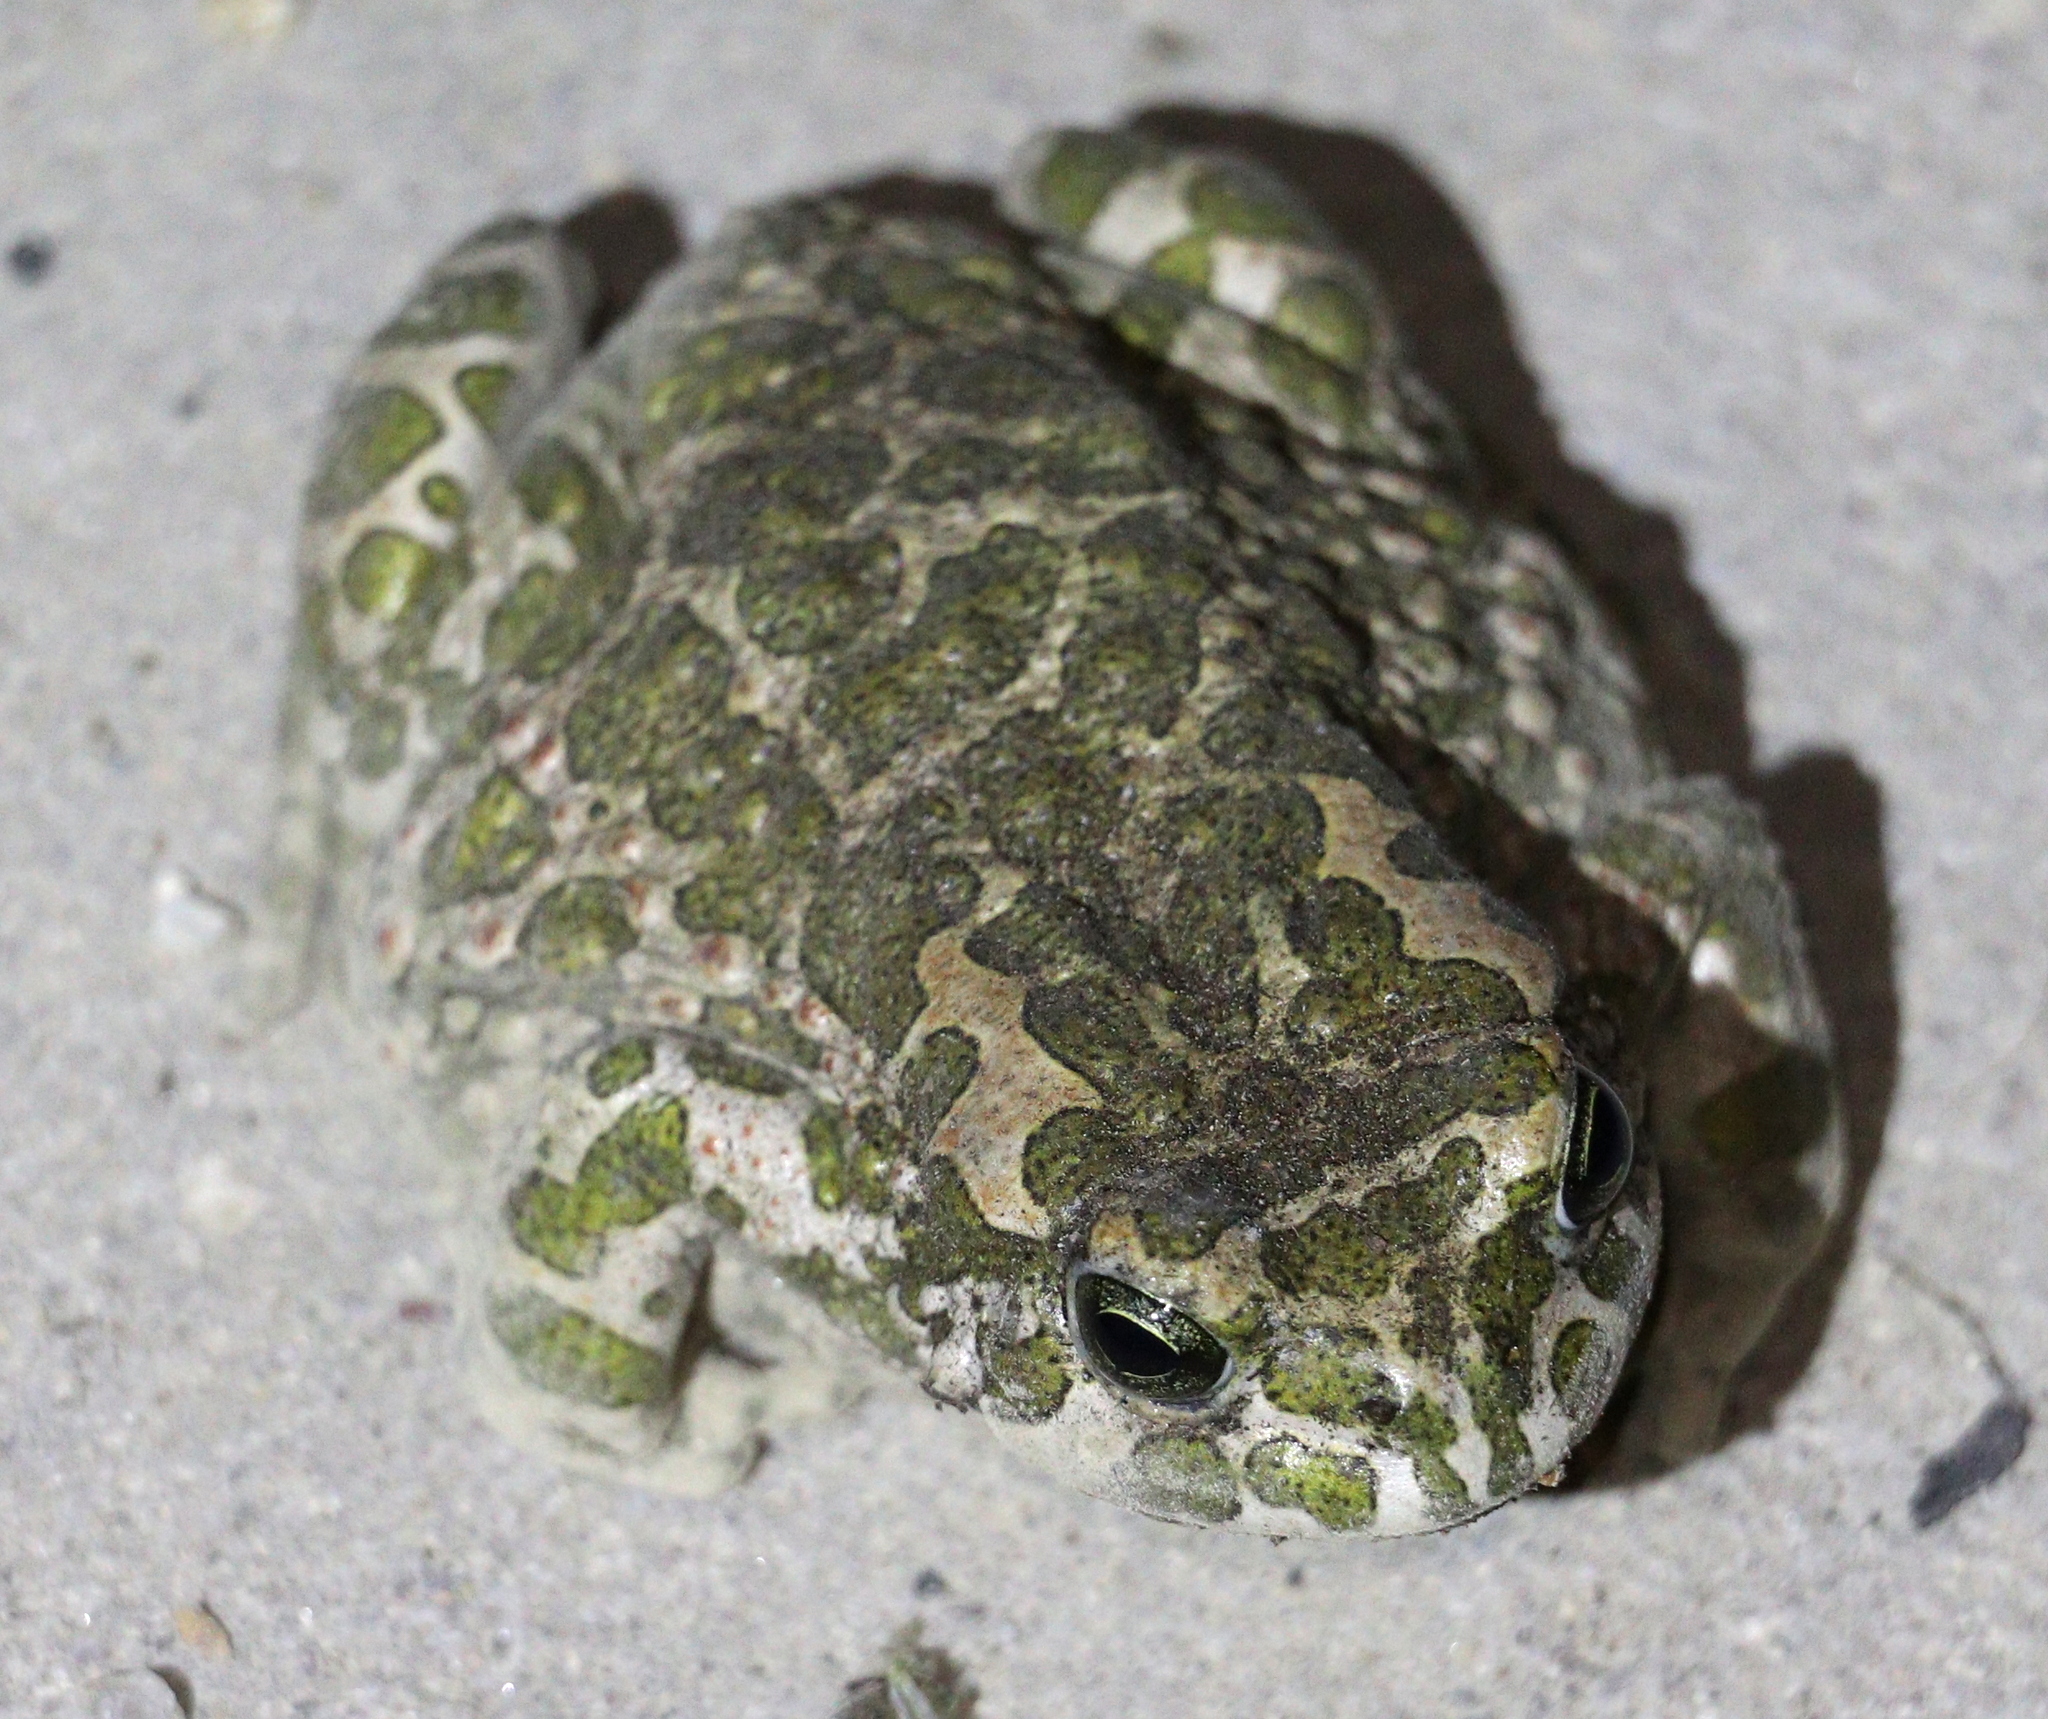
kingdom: Animalia
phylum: Chordata
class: Amphibia
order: Anura
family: Bufonidae
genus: Bufotes
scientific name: Bufotes viridis
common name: European green toad
